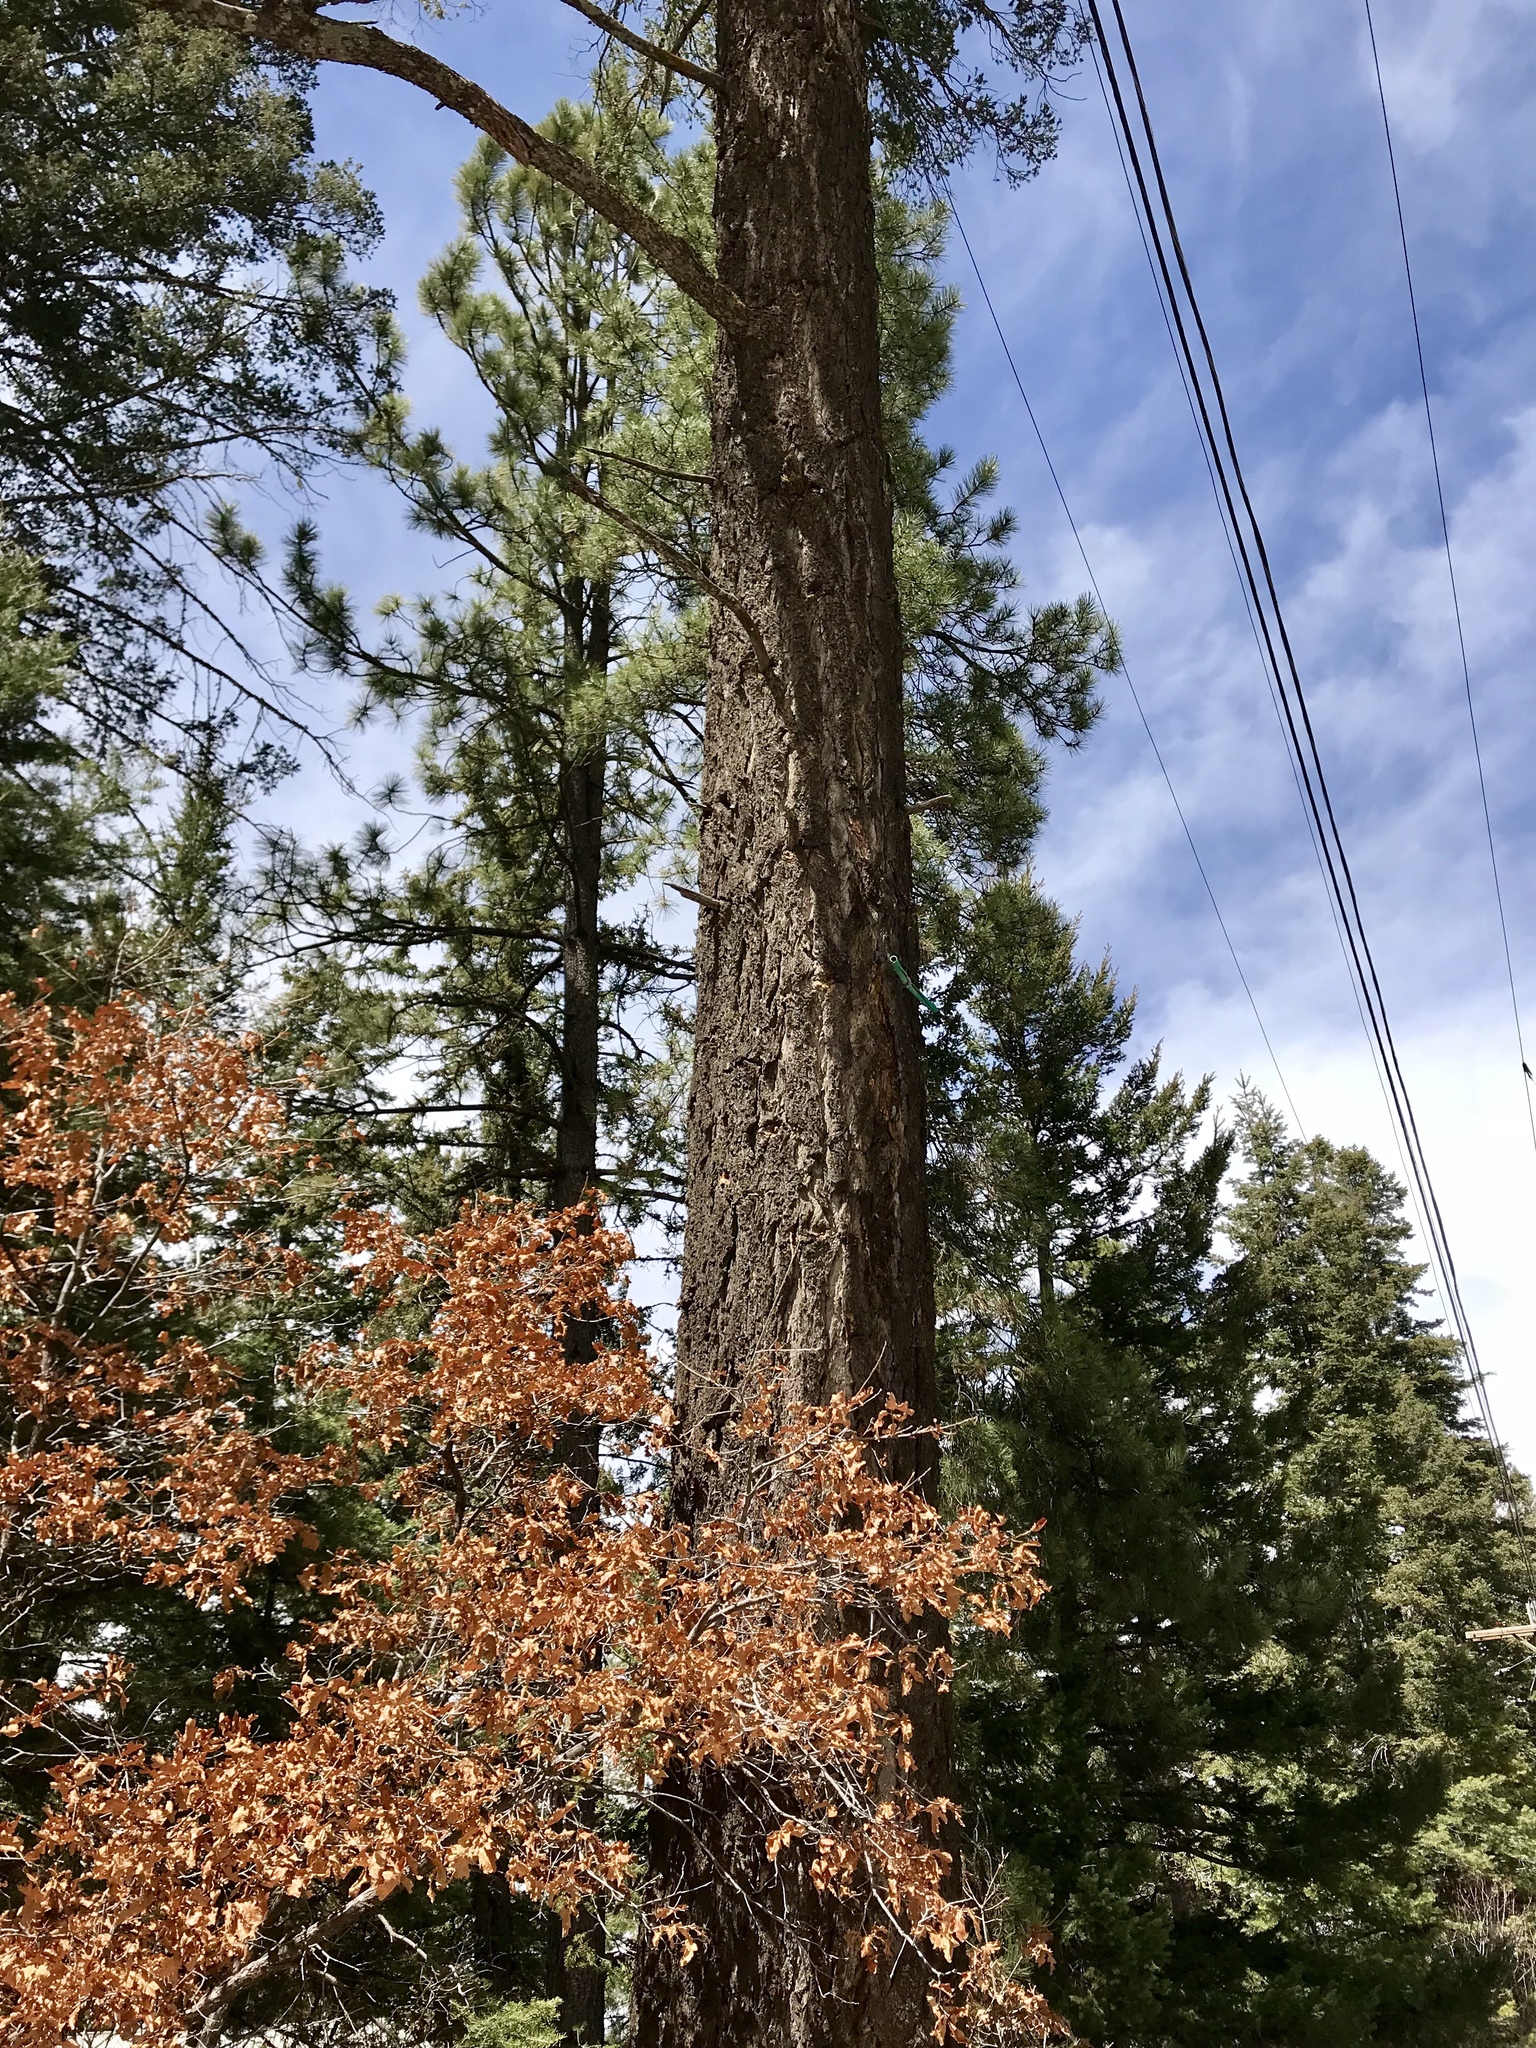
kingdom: Plantae
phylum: Tracheophyta
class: Pinopsida
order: Pinales
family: Pinaceae
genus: Pseudotsuga
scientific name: Pseudotsuga menziesii
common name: Douglas fir
